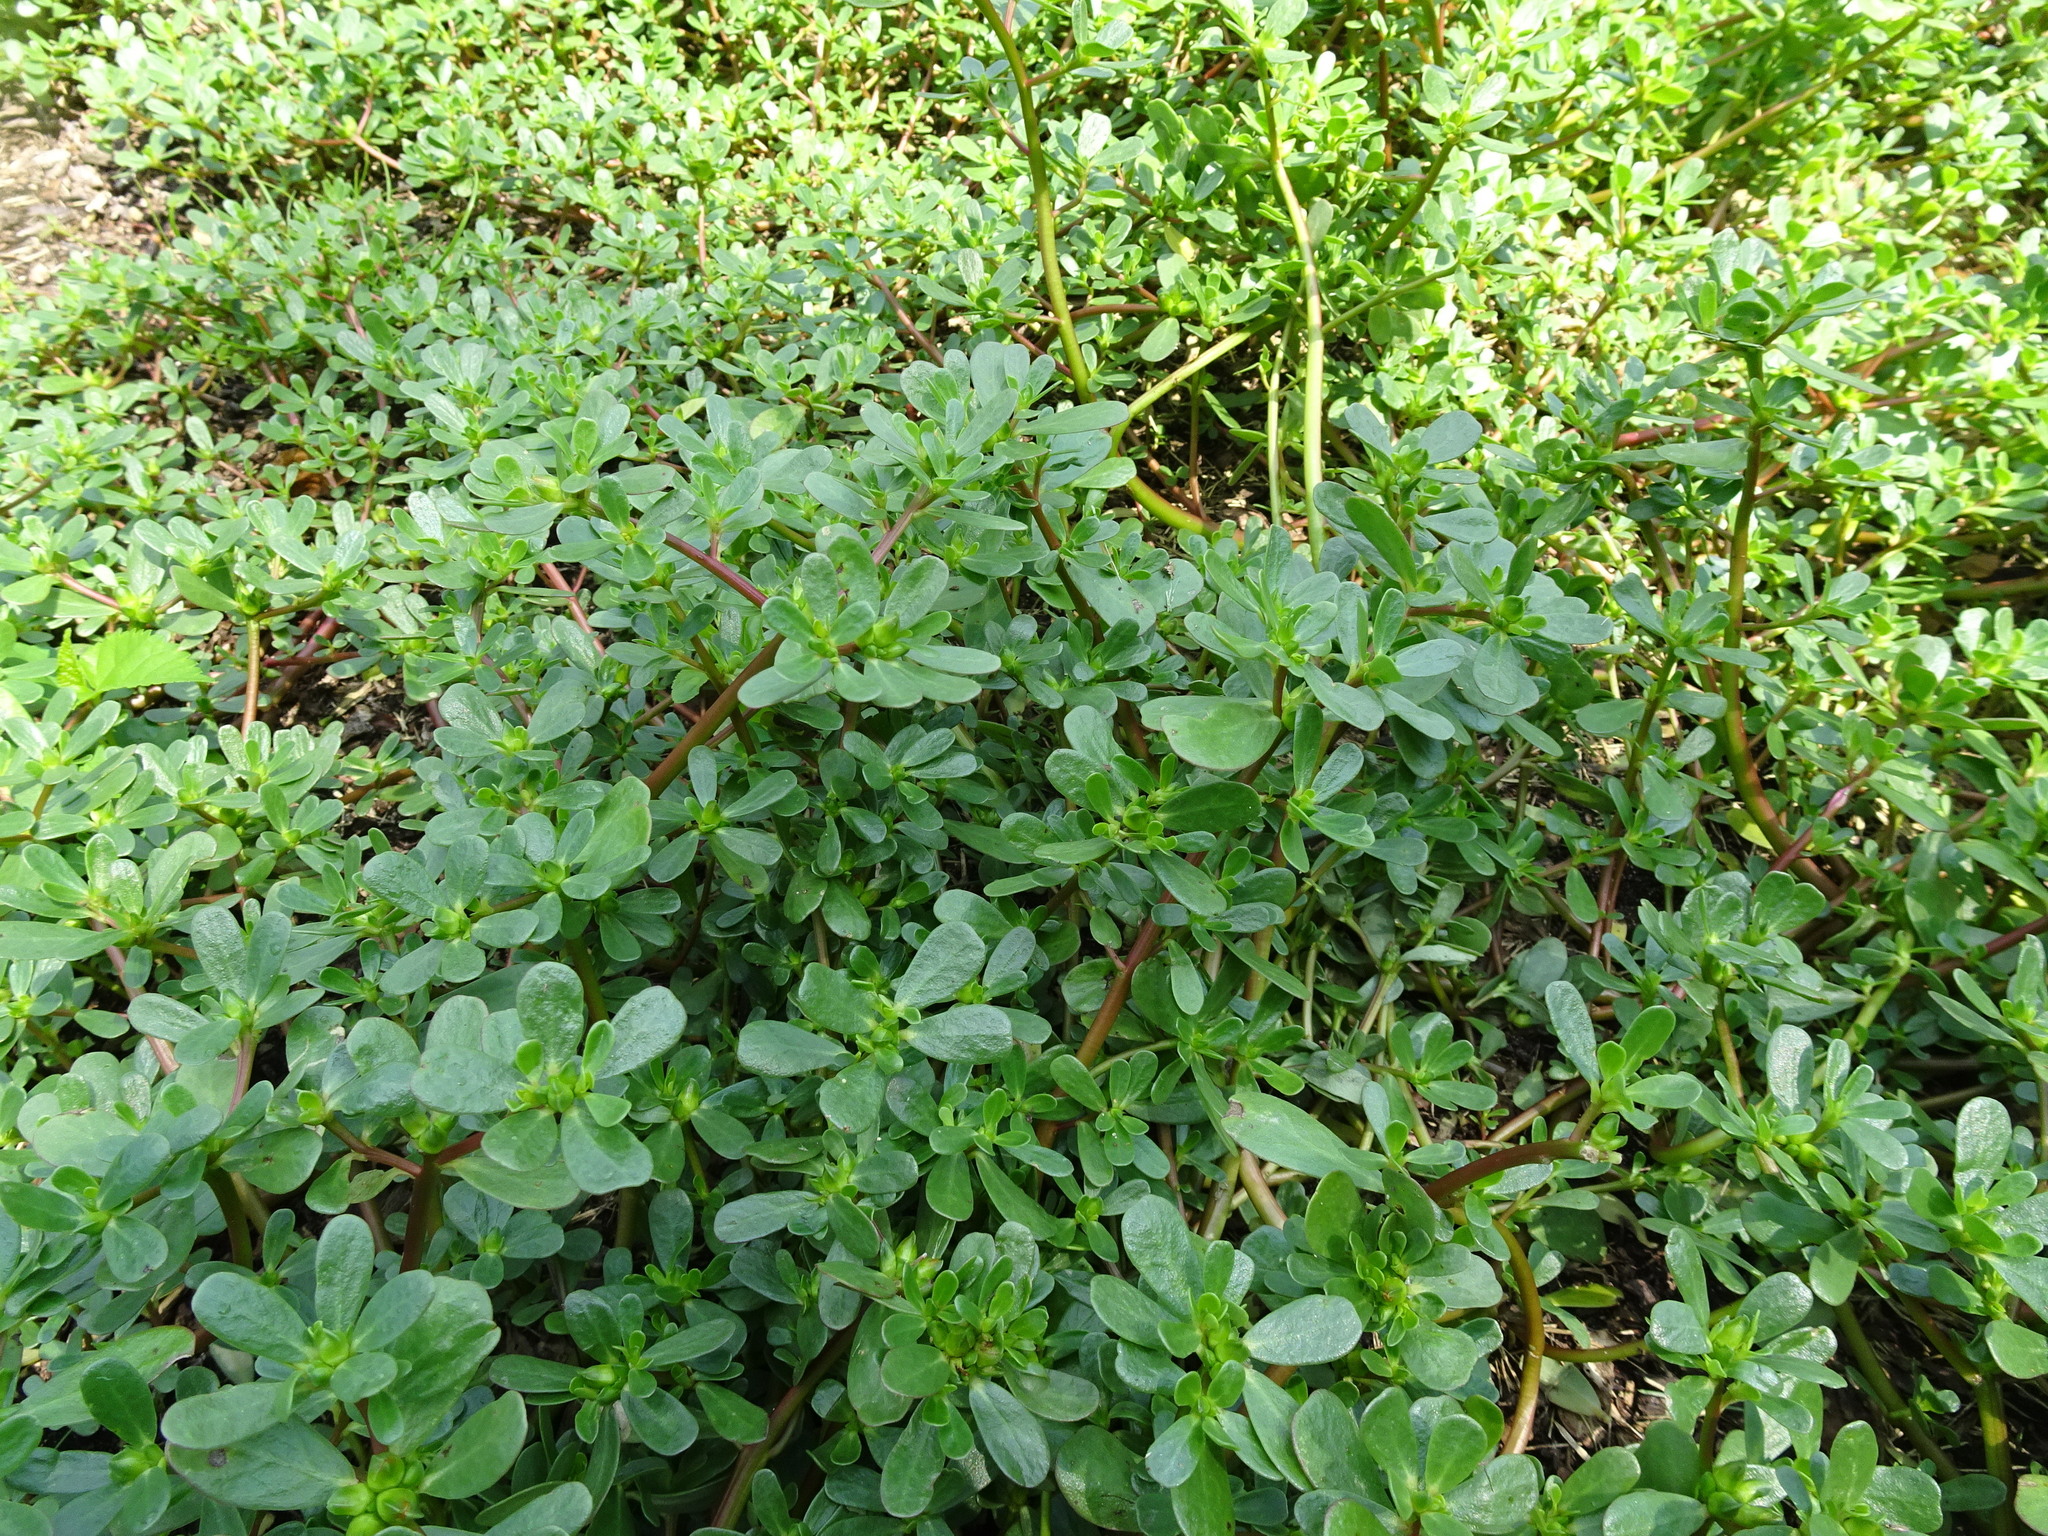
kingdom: Plantae
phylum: Tracheophyta
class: Magnoliopsida
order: Caryophyllales
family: Portulacaceae
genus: Portulaca
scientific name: Portulaca oleracea
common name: Common purslane
